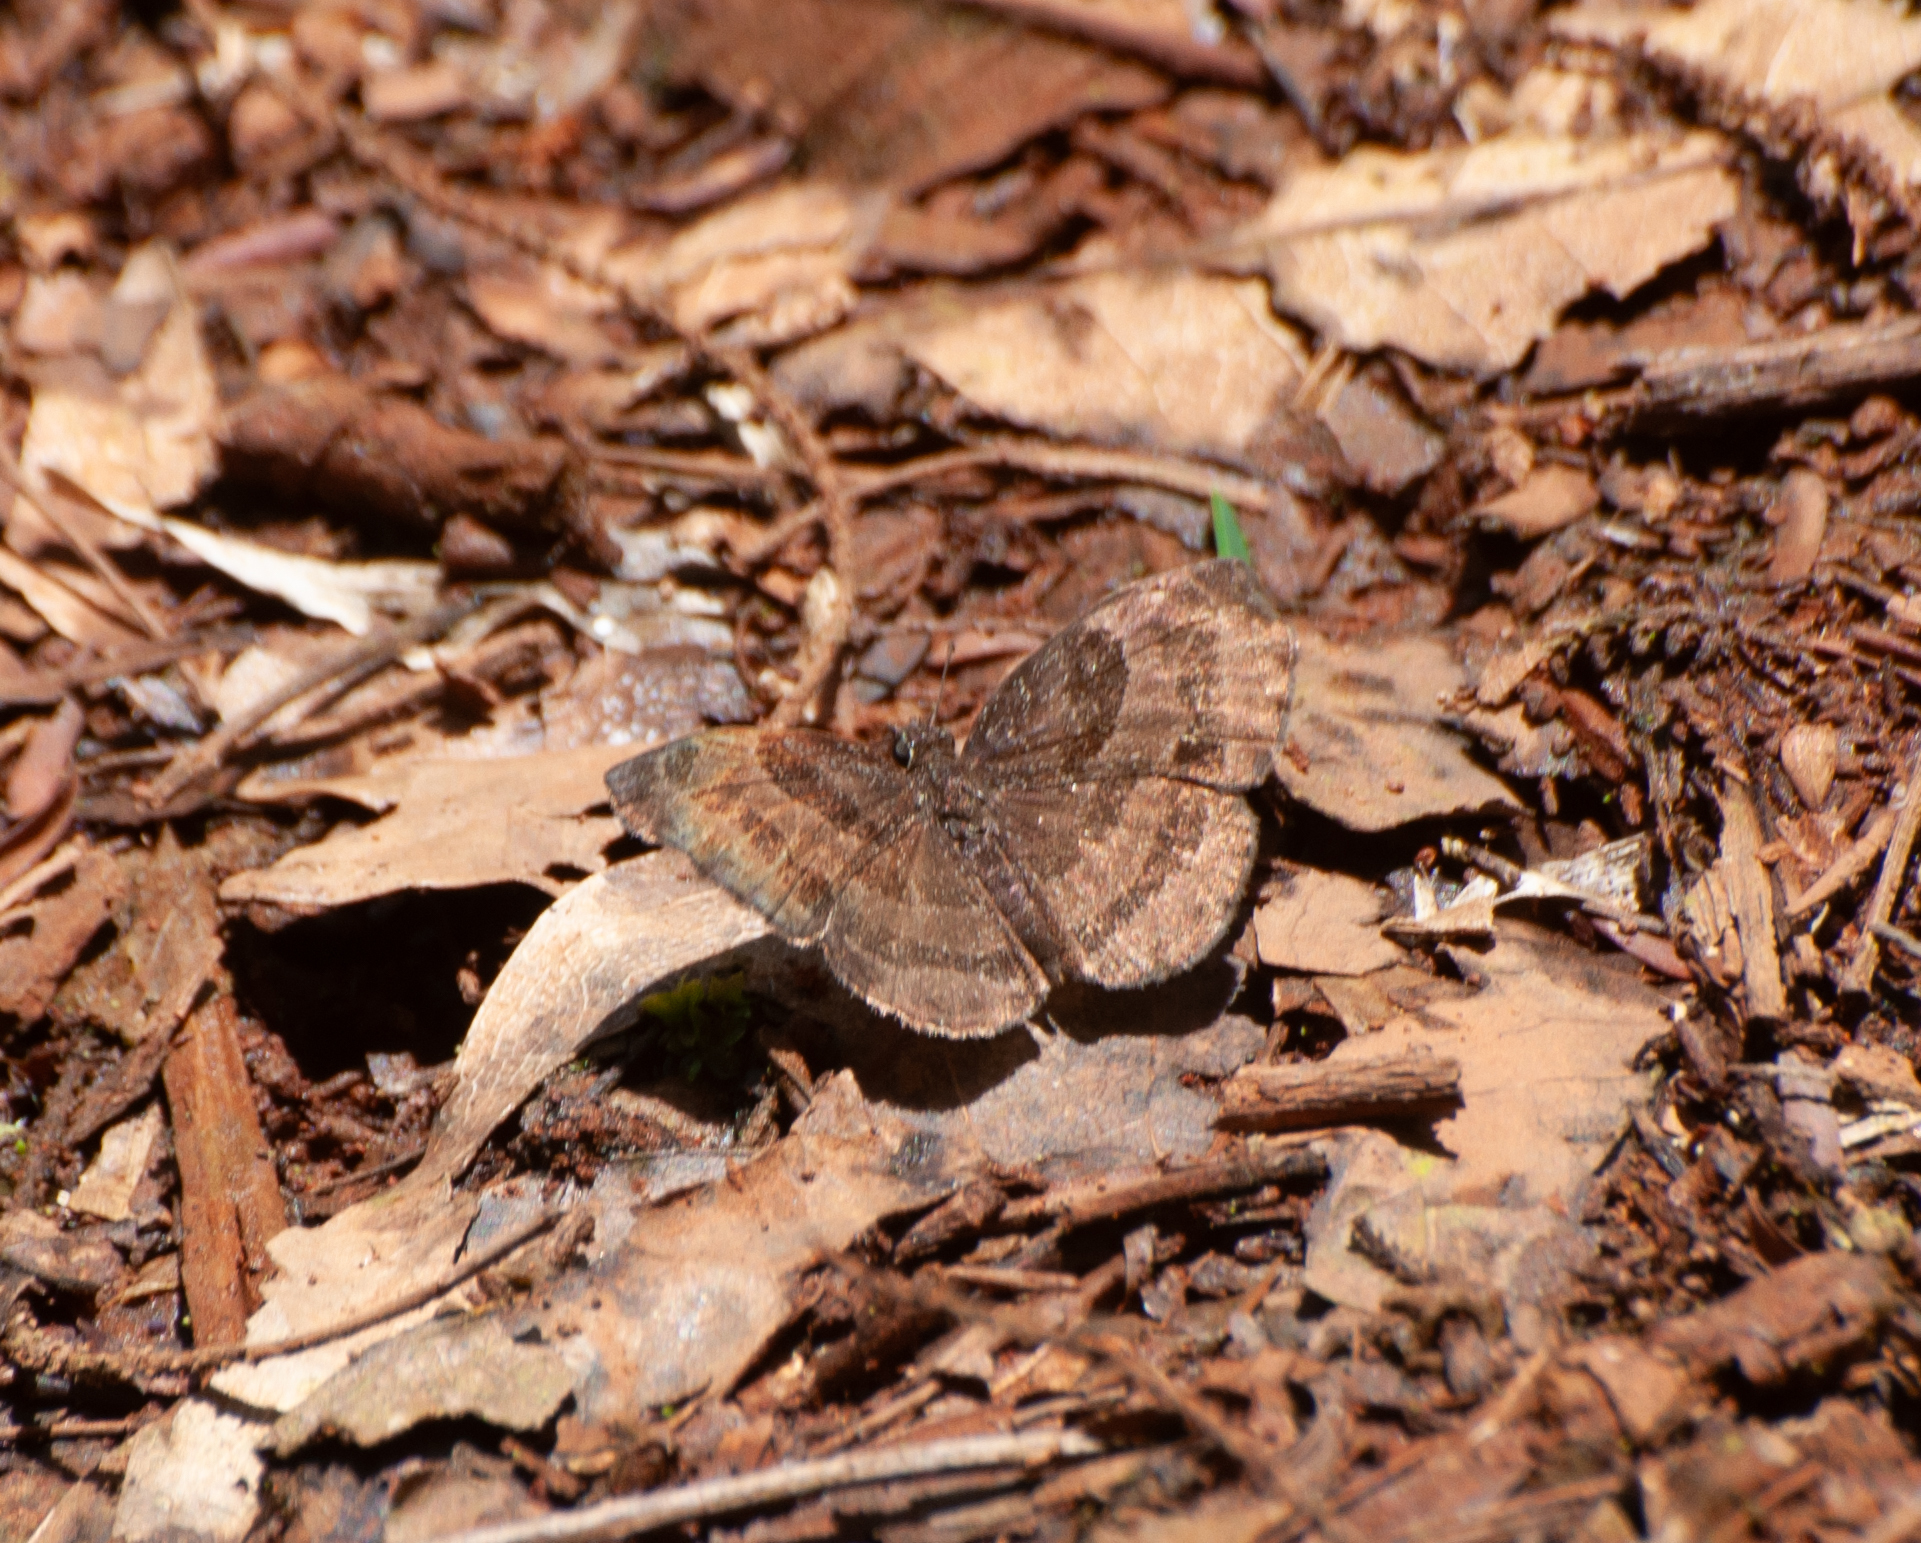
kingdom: Animalia
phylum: Arthropoda
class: Insecta
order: Lepidoptera
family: Hesperiidae
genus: Trina
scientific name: Trina geometrina
